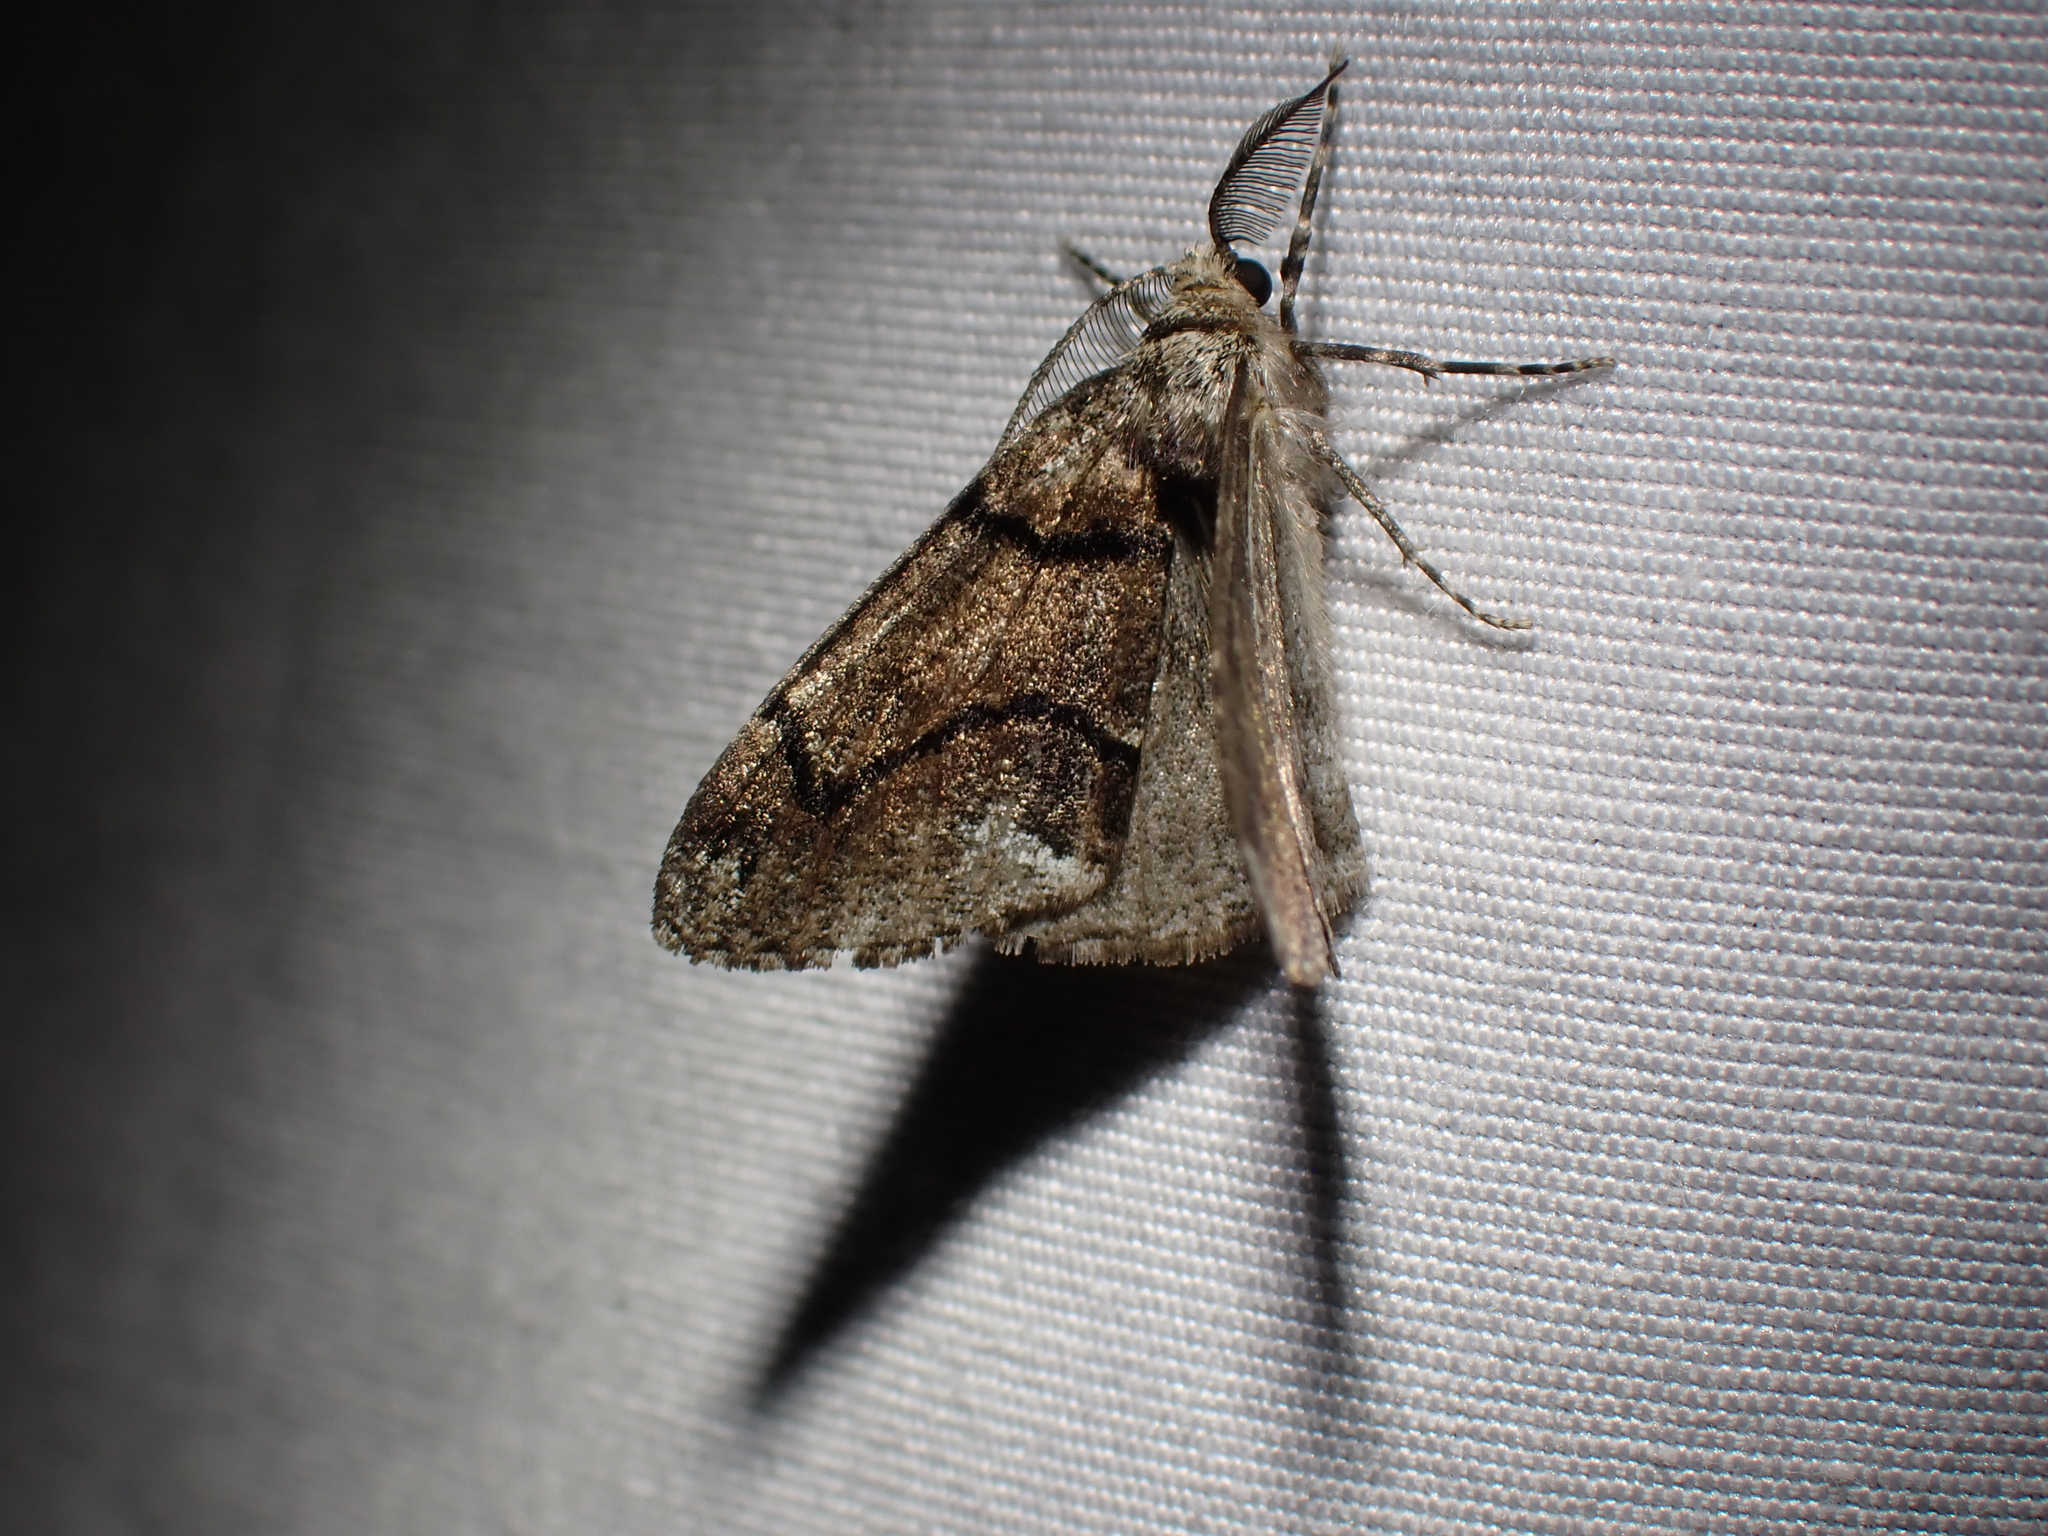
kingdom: Animalia
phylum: Arthropoda
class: Insecta
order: Lepidoptera
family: Geometridae
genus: Gabriola
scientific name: Gabriola dyari
